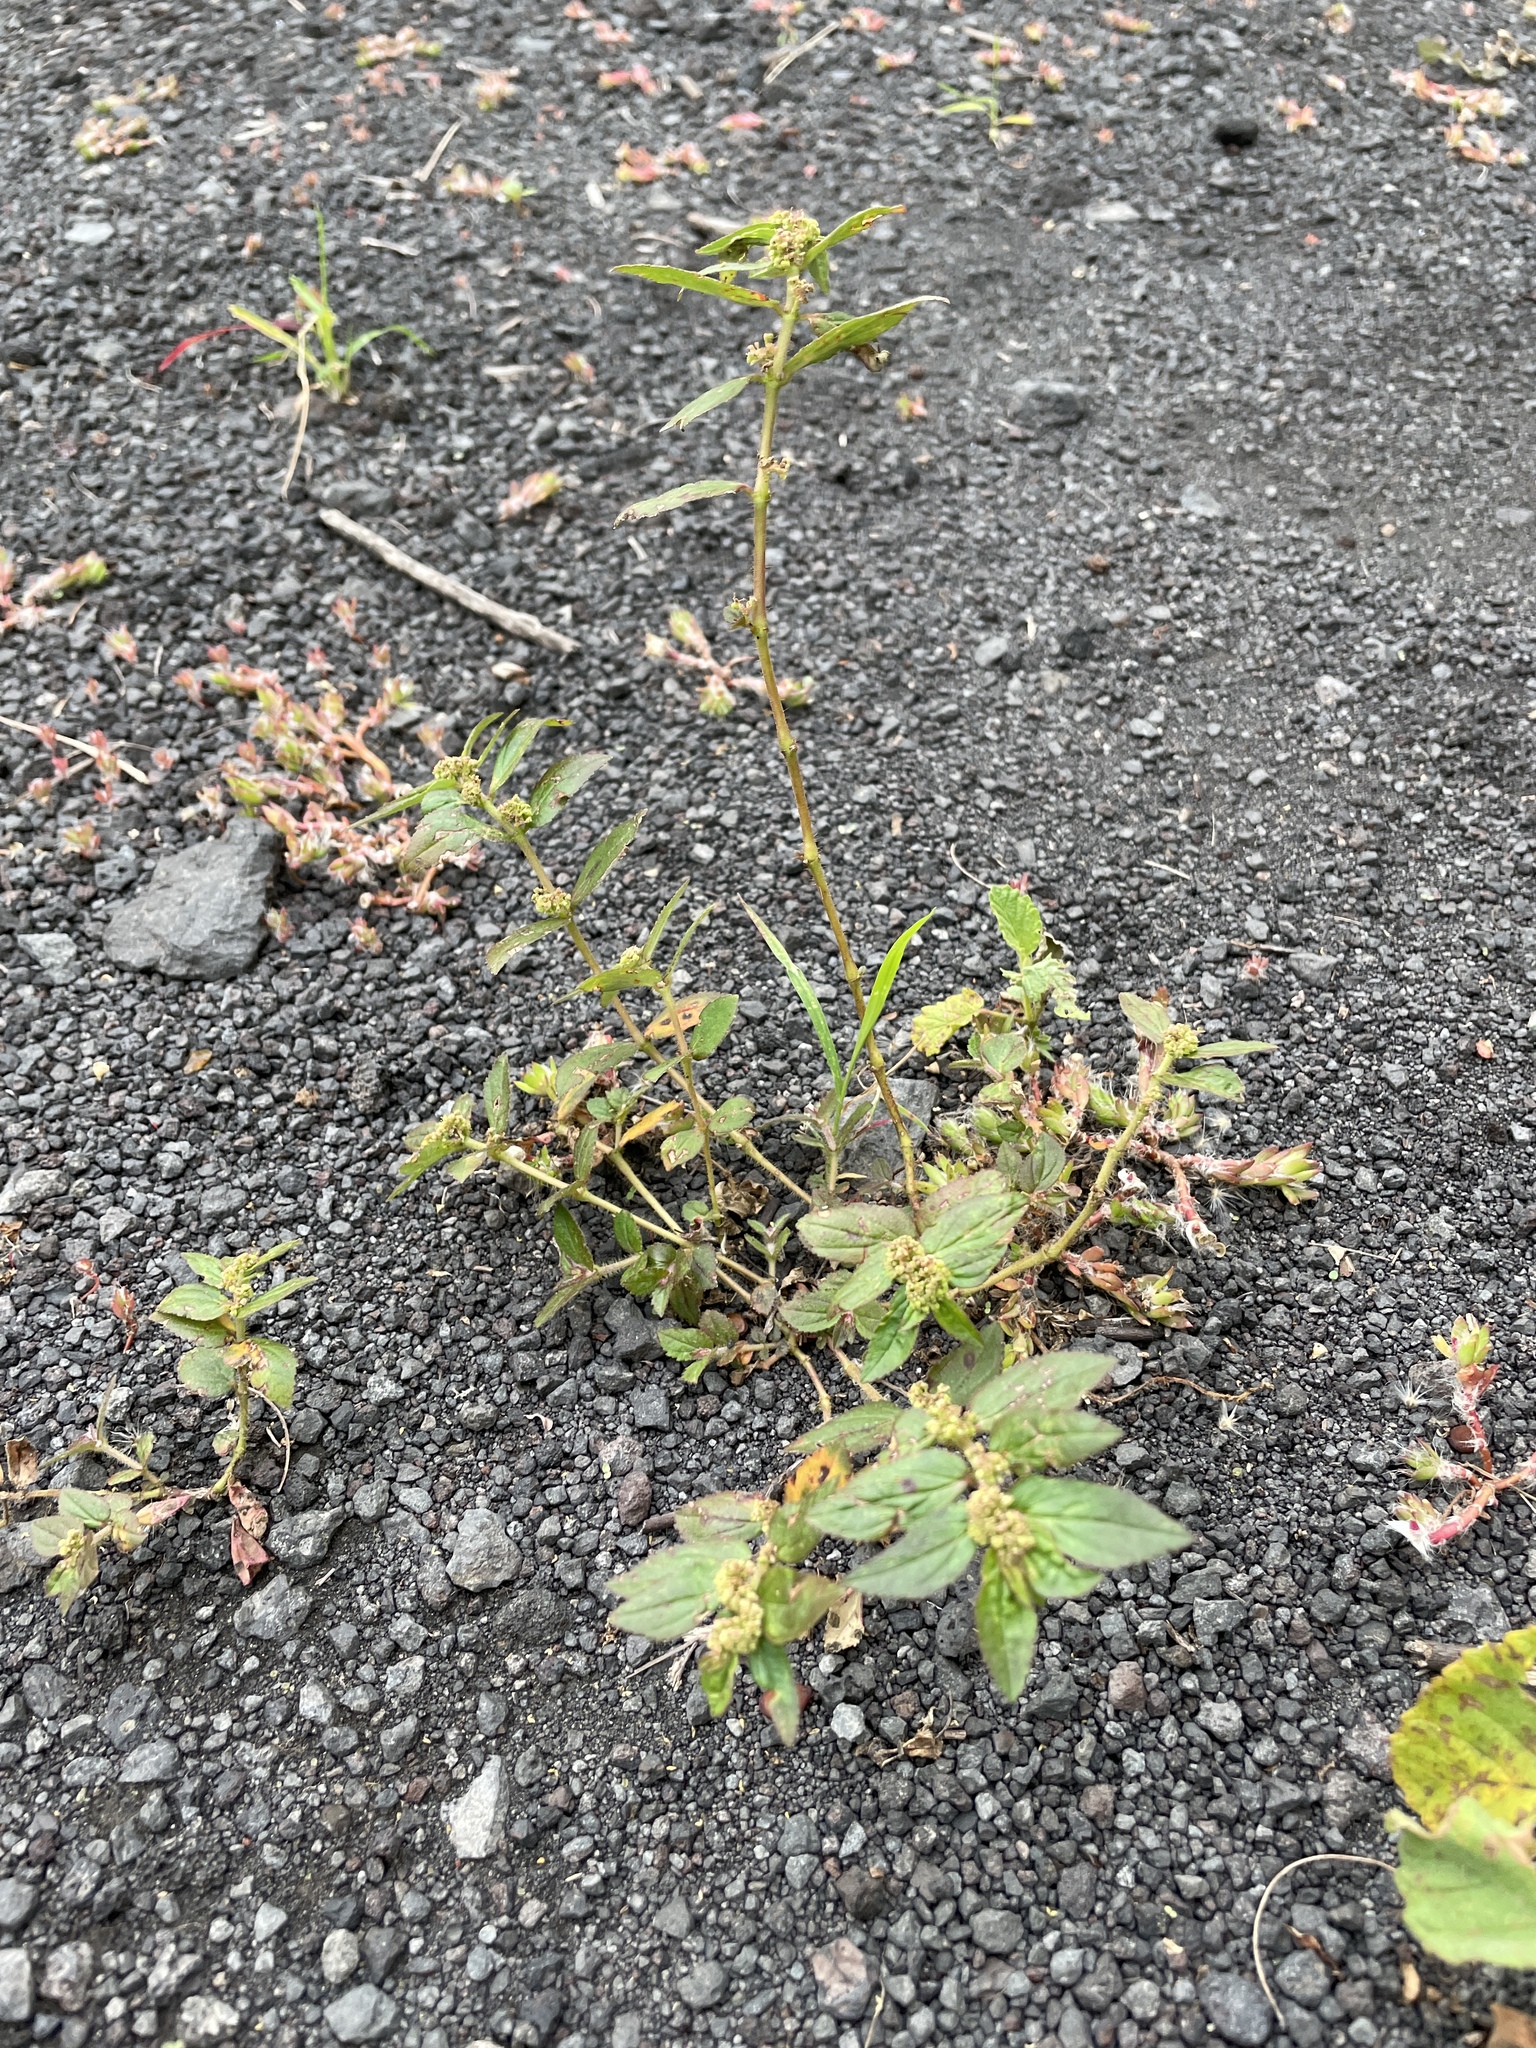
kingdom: Plantae
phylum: Tracheophyta
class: Magnoliopsida
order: Malpighiales
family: Euphorbiaceae
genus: Euphorbia
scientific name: Euphorbia hirta
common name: Pillpod sandmat
